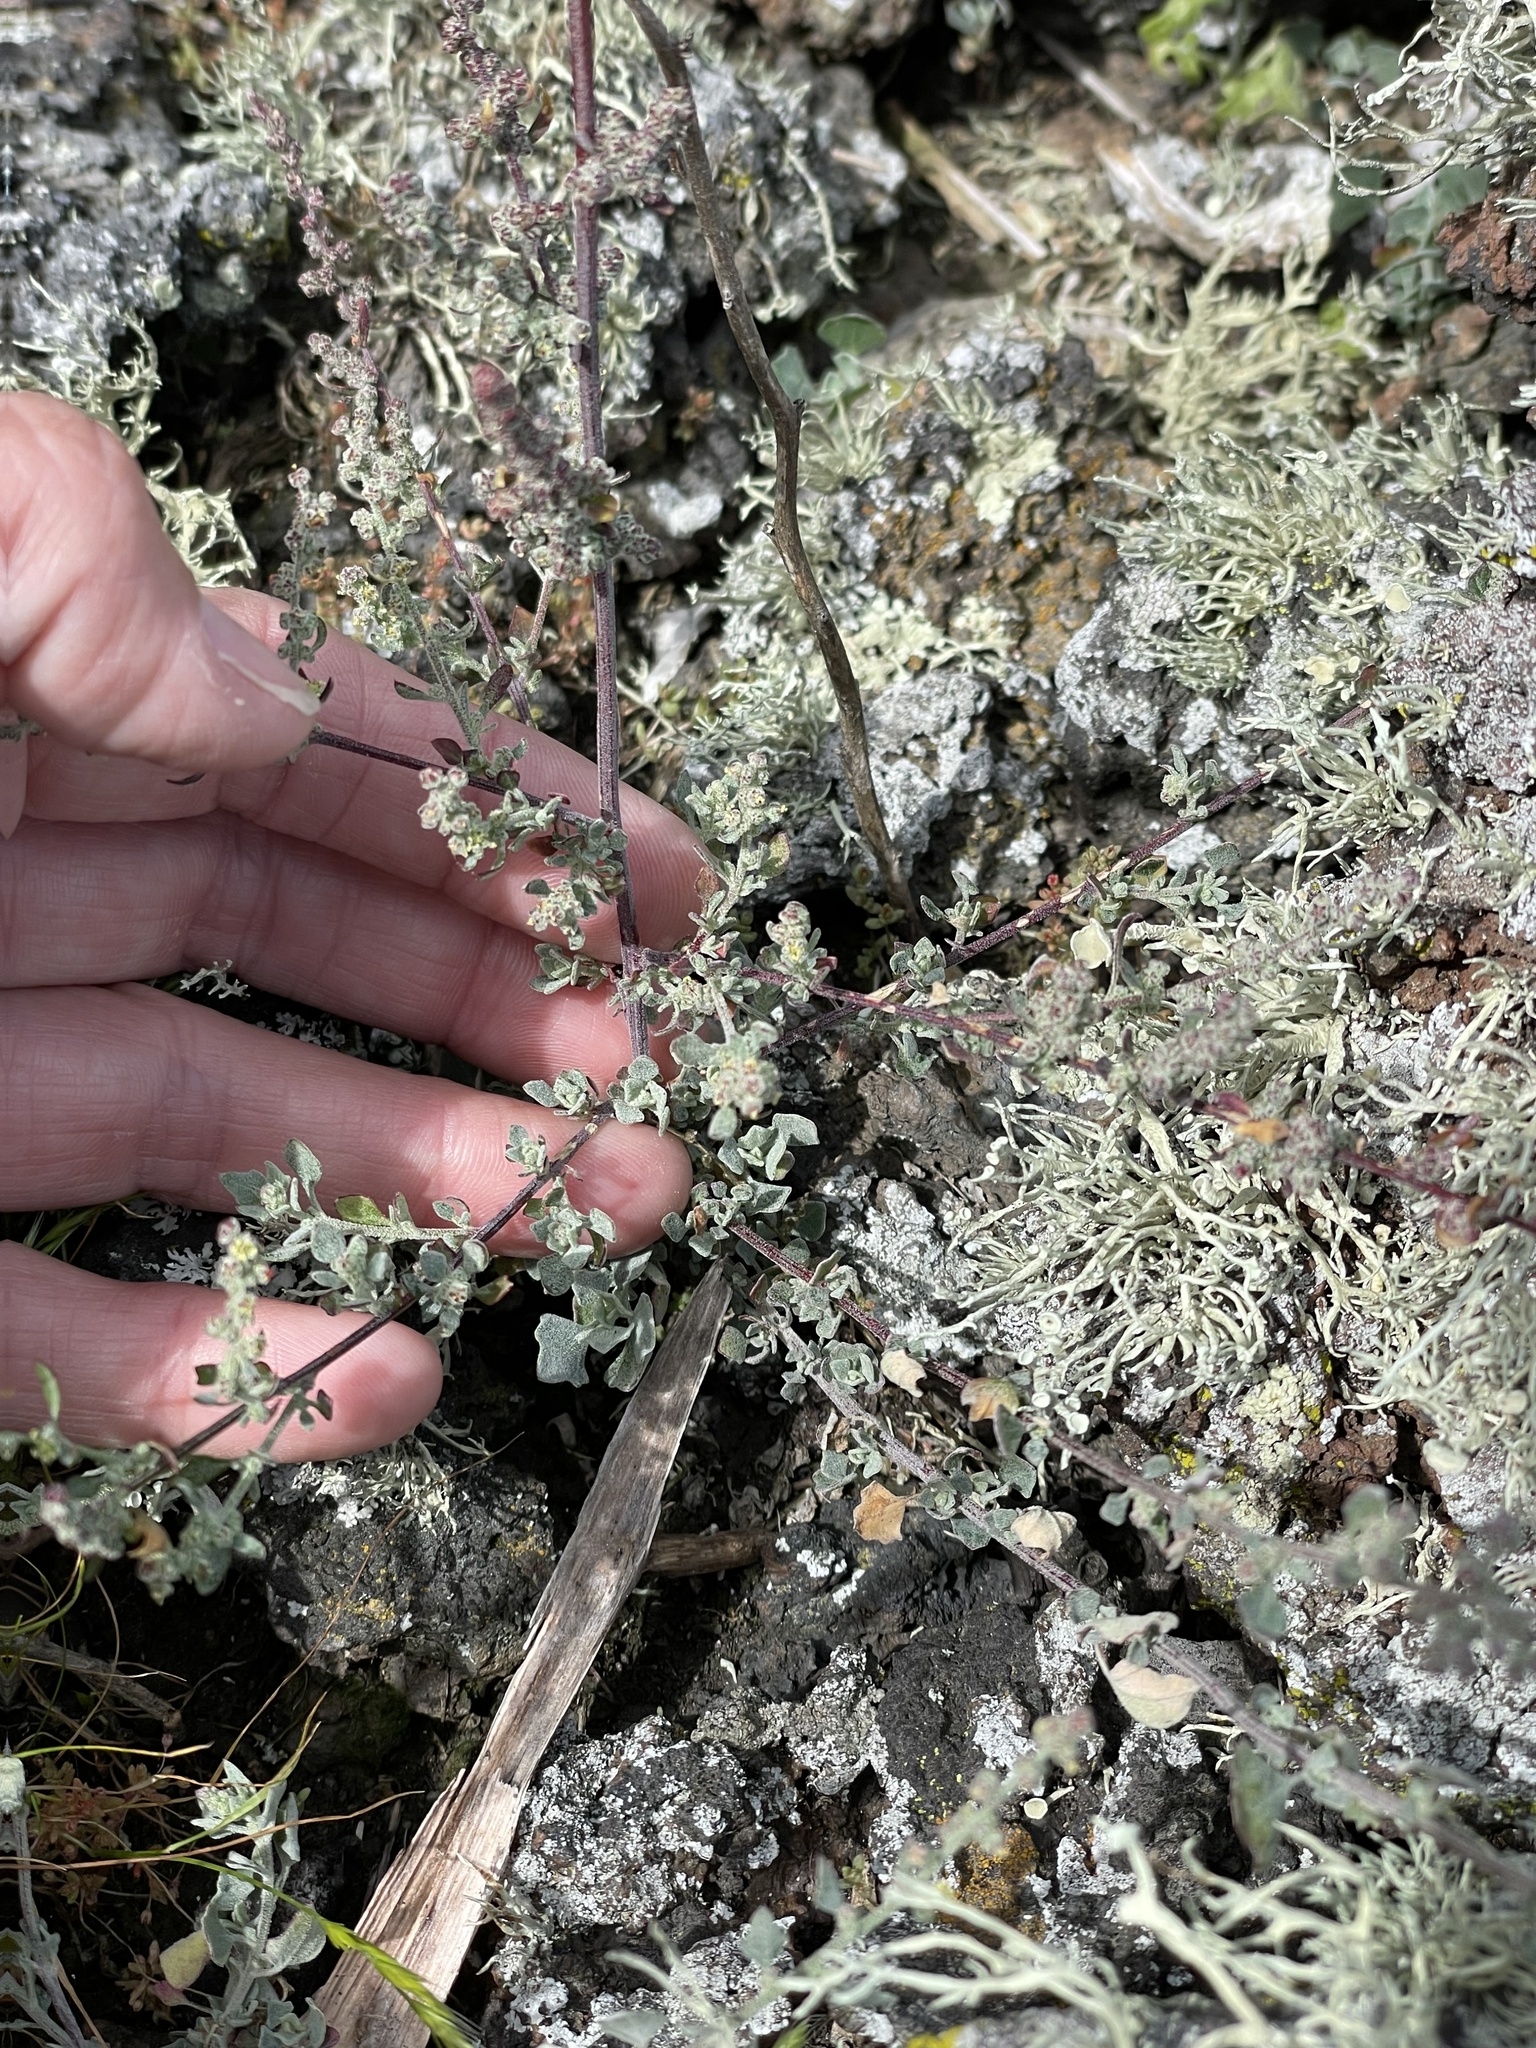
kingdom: Plantae
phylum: Tracheophyta
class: Magnoliopsida
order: Caryophyllales
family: Amaranthaceae
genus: Chenopodium
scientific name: Chenopodium flabellifolium
